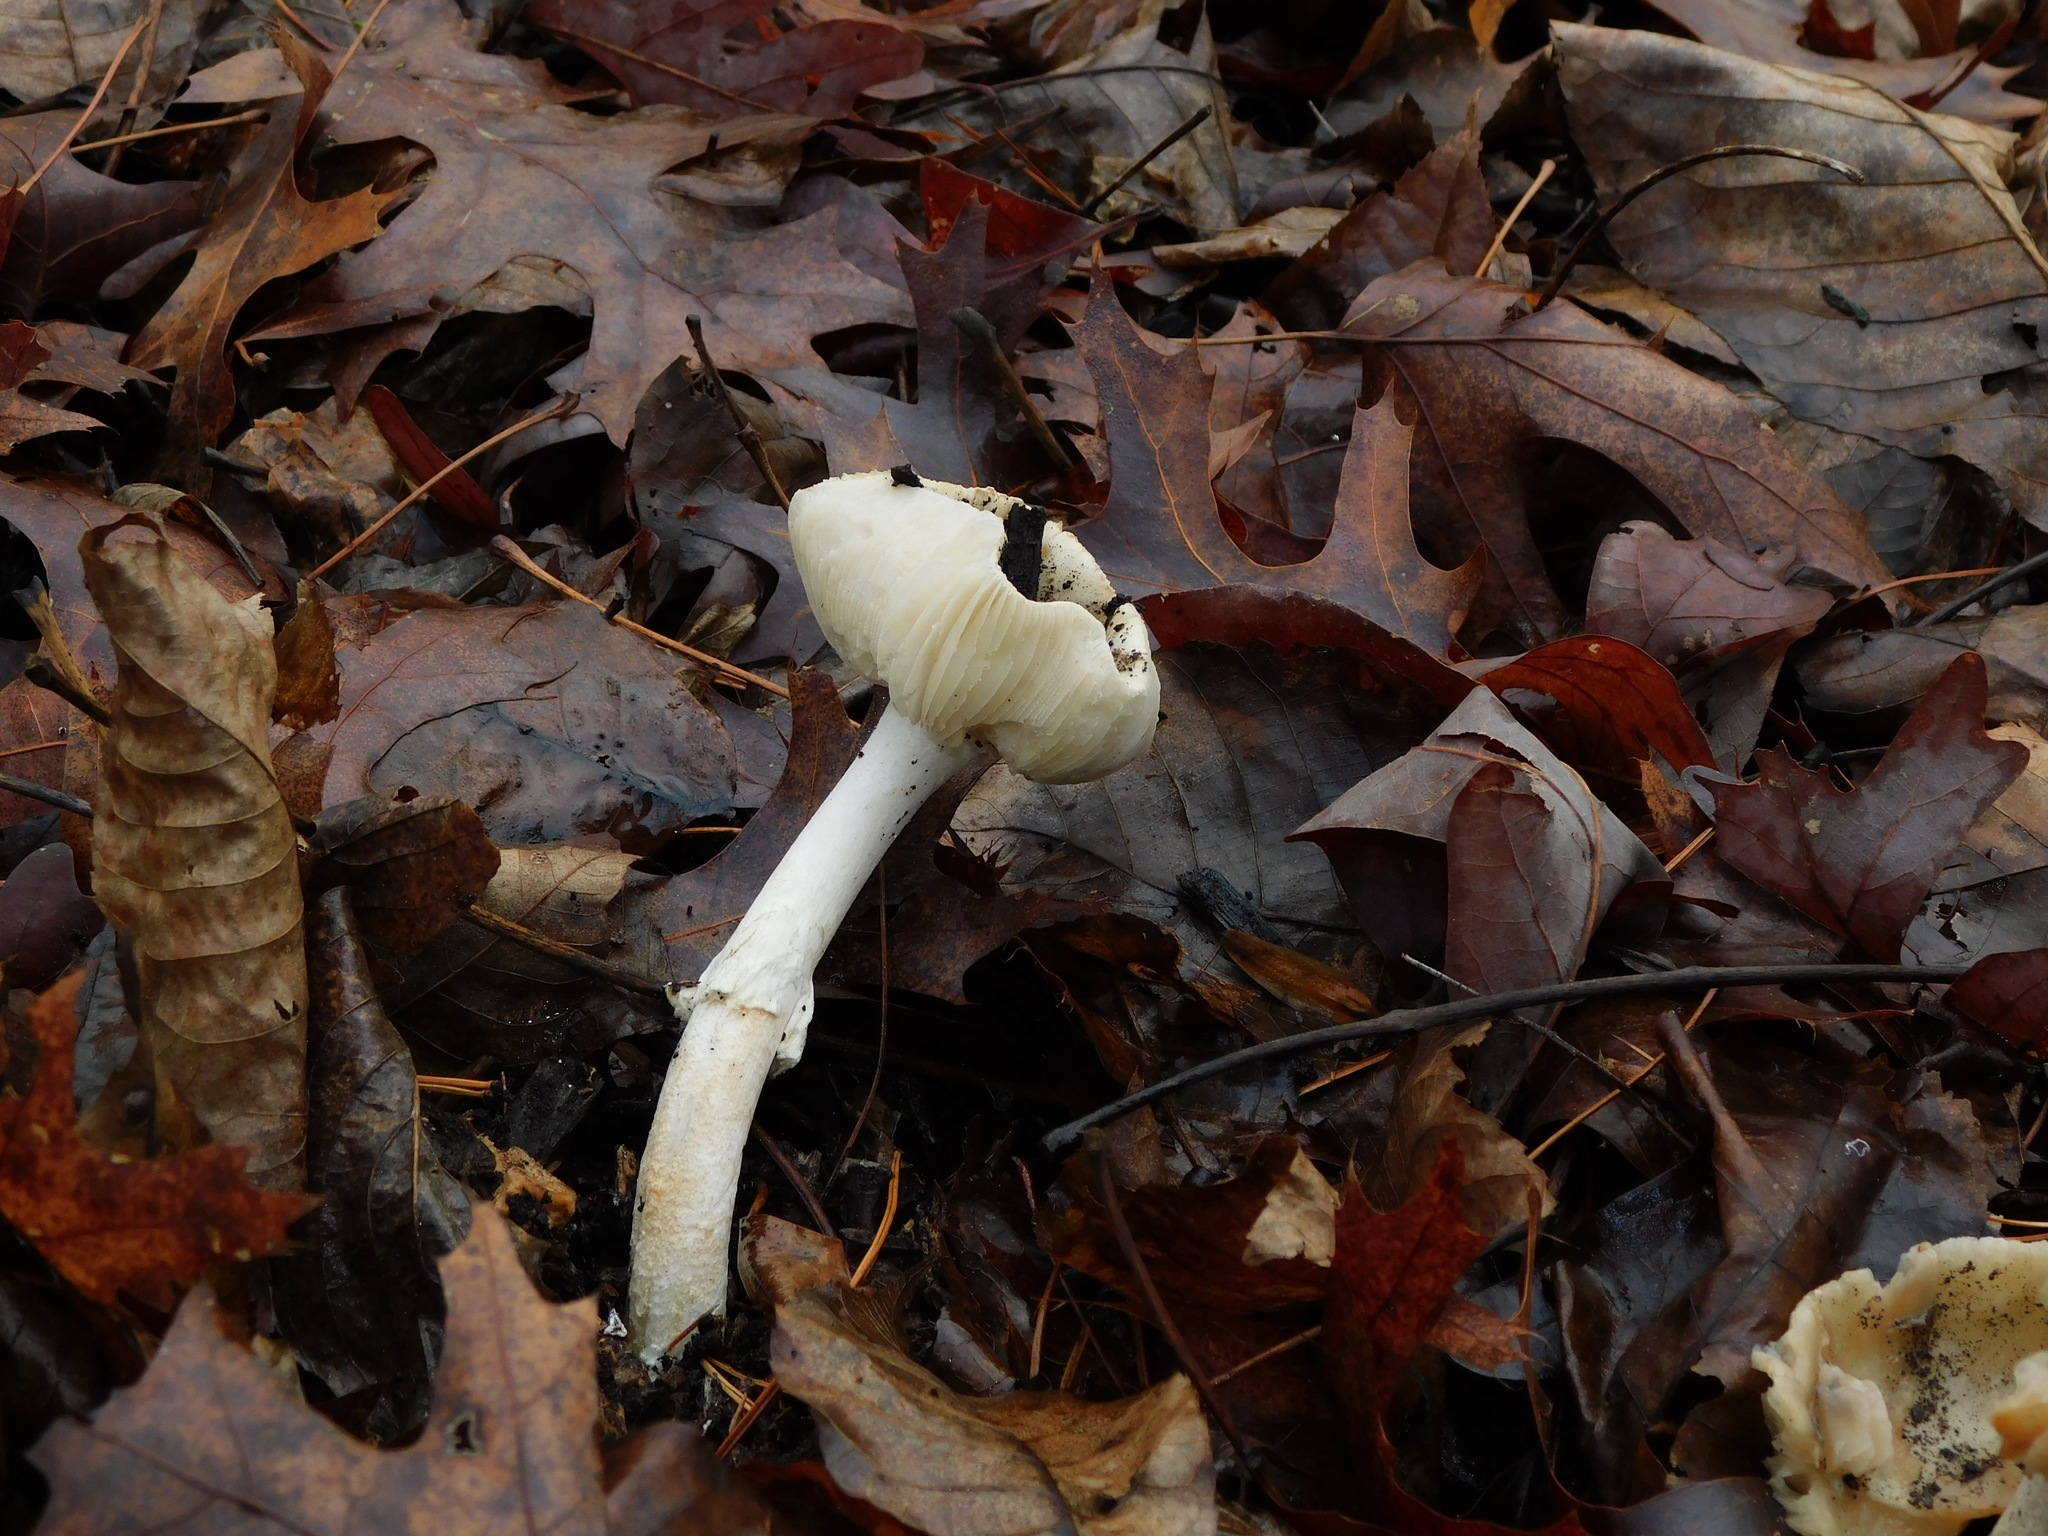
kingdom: Fungi
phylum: Basidiomycota
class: Agaricomycetes
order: Agaricales
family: Amanitaceae
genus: Amanita
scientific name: Amanita lavendula
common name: Coker's lavender staining amanita
